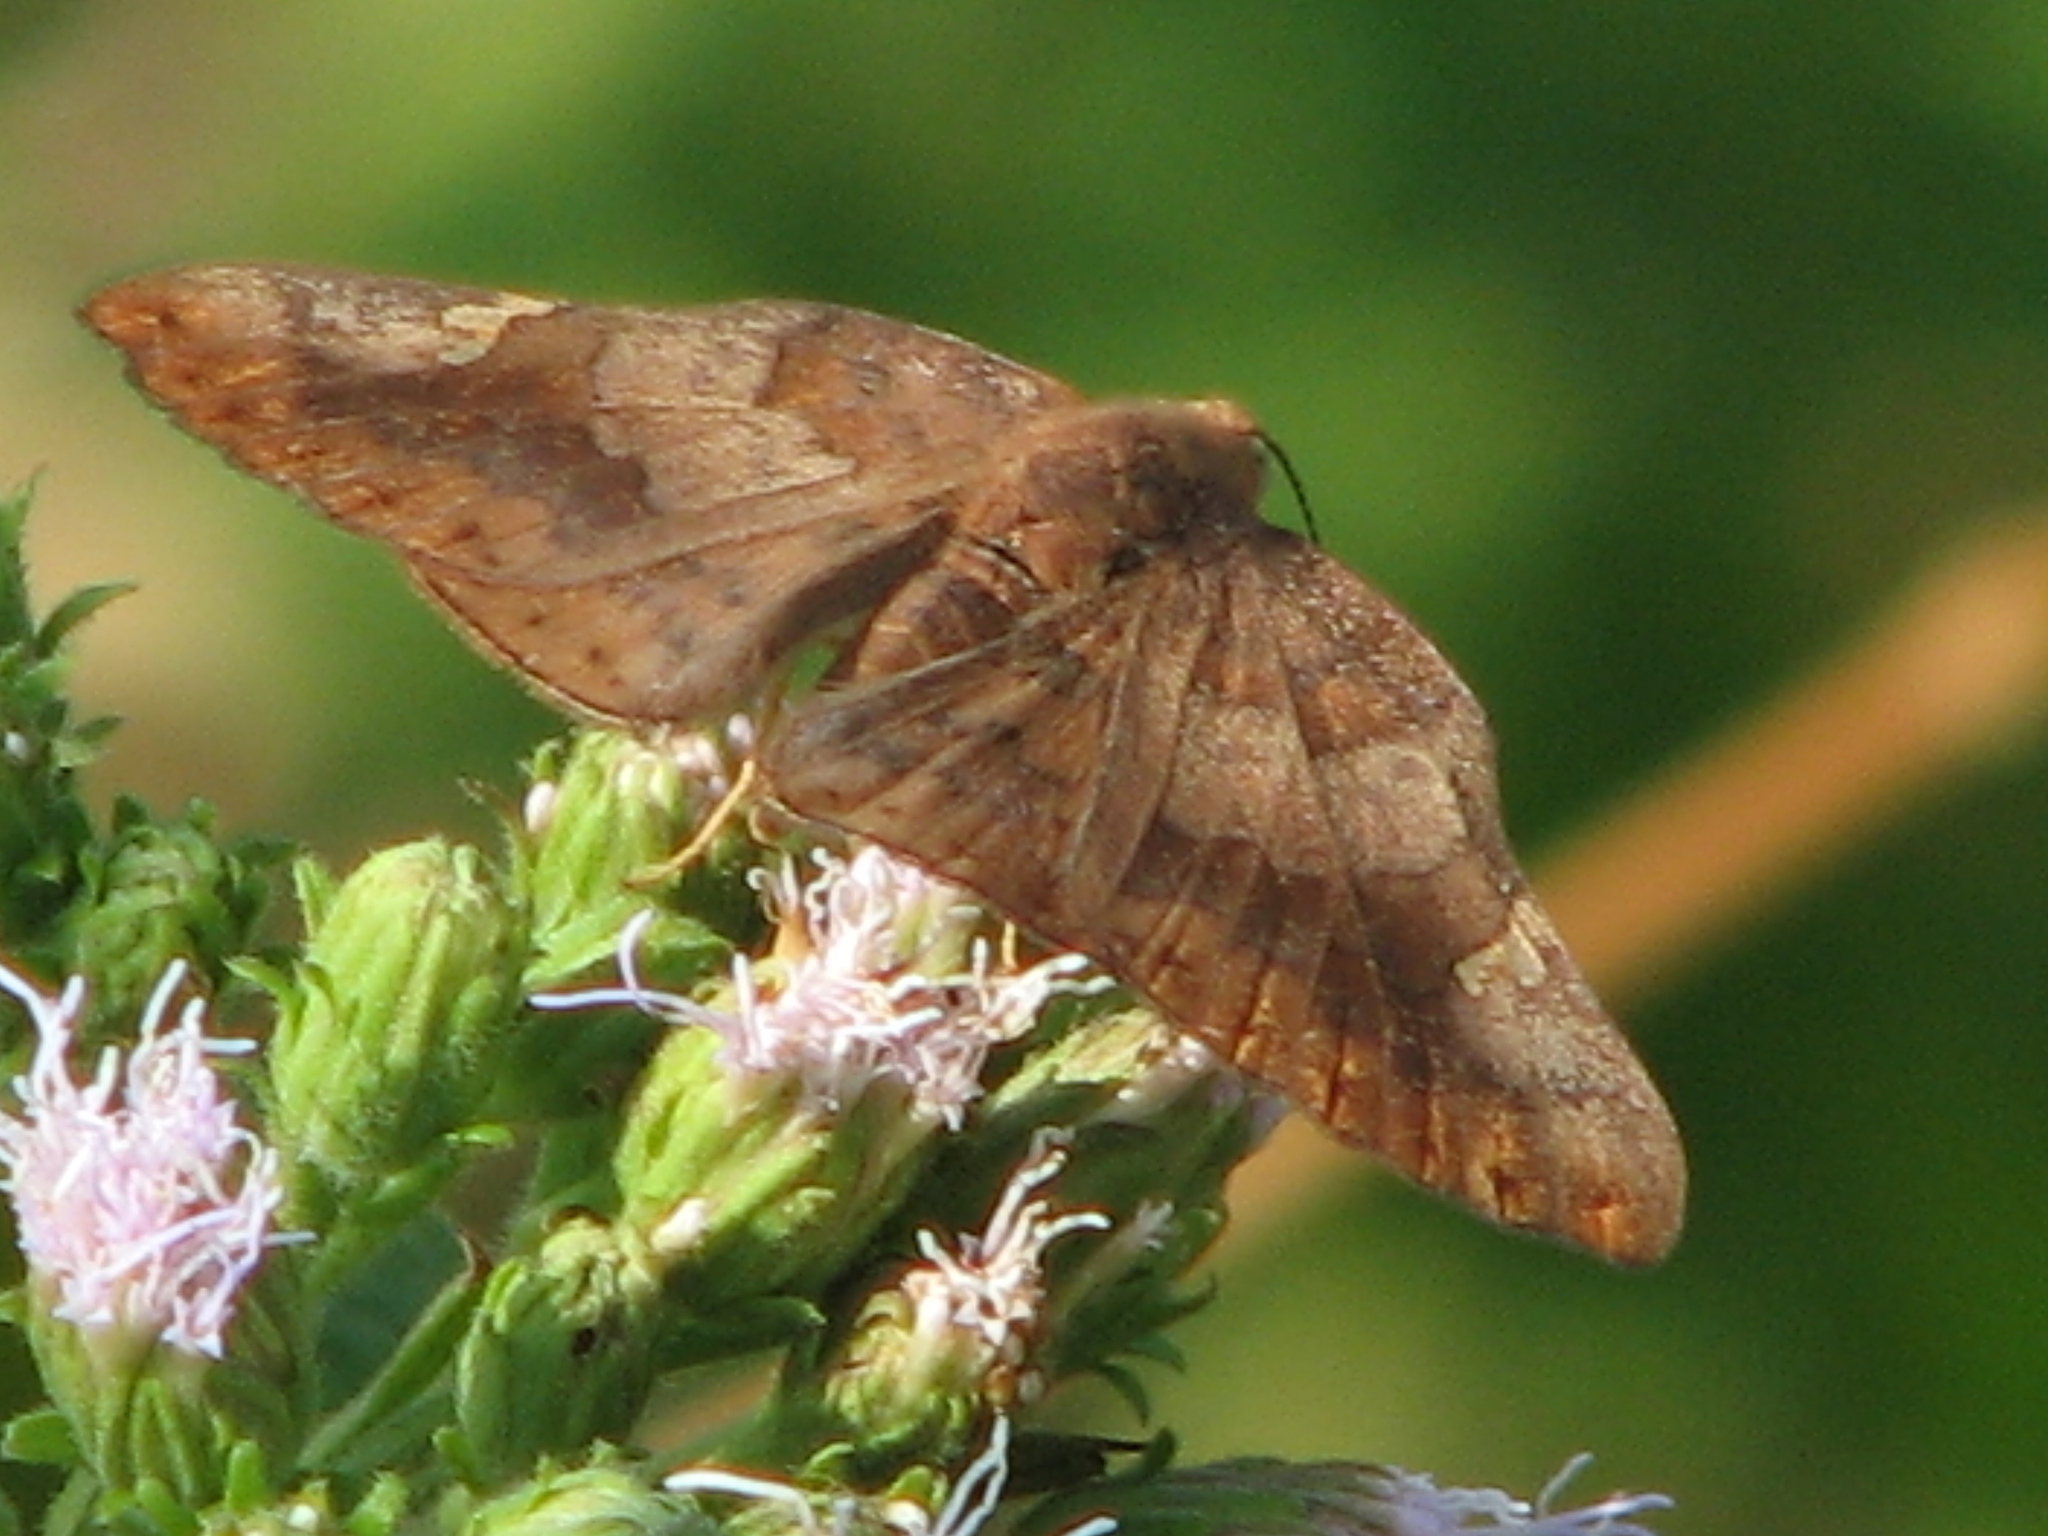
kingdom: Animalia
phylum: Arthropoda
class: Insecta
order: Lepidoptera
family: Riodinidae
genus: Curvie
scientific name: Curvie emesia
